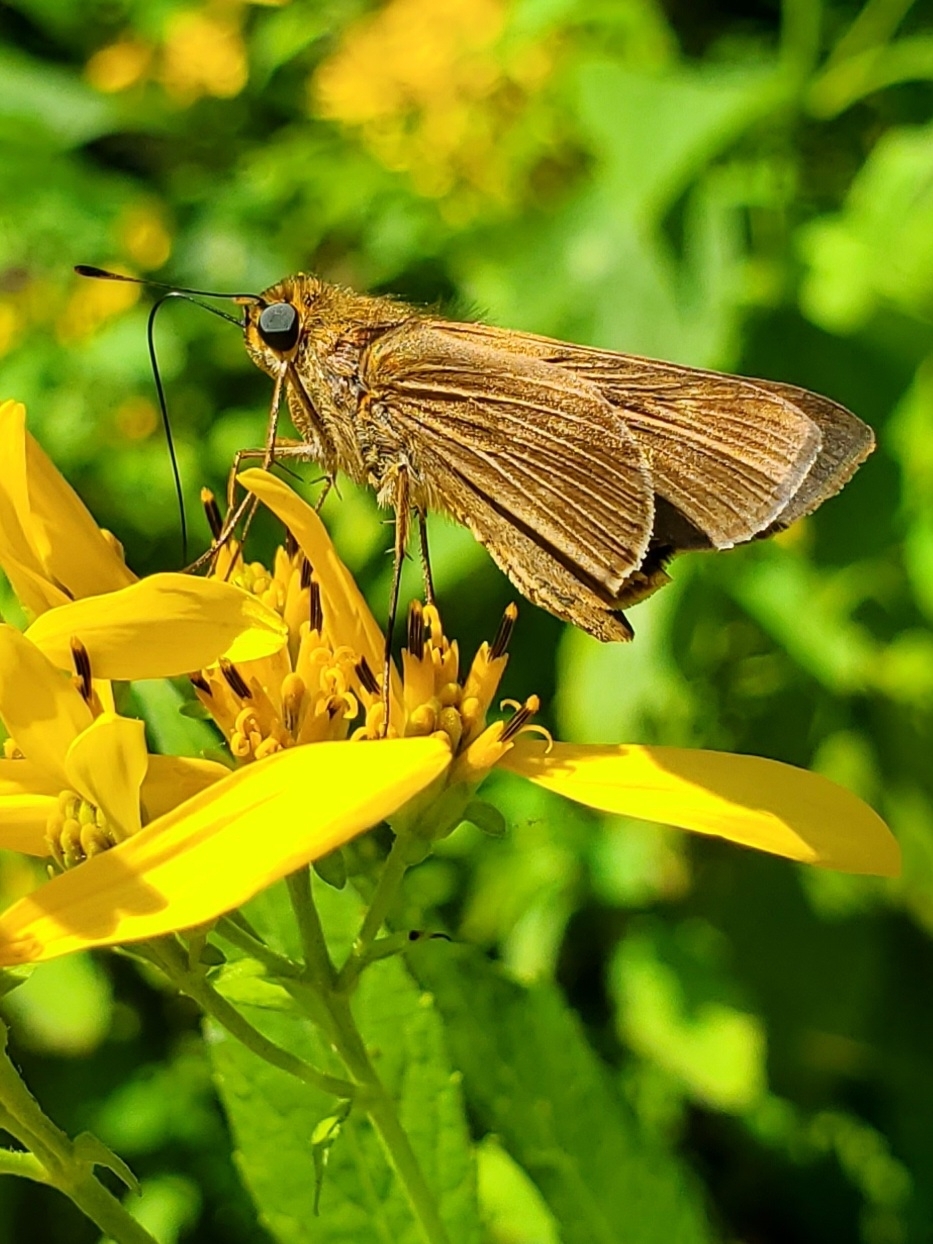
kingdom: Animalia
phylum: Arthropoda
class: Insecta
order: Lepidoptera
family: Hesperiidae
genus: Panoquina
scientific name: Panoquina ocola
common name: Ocola skipper
